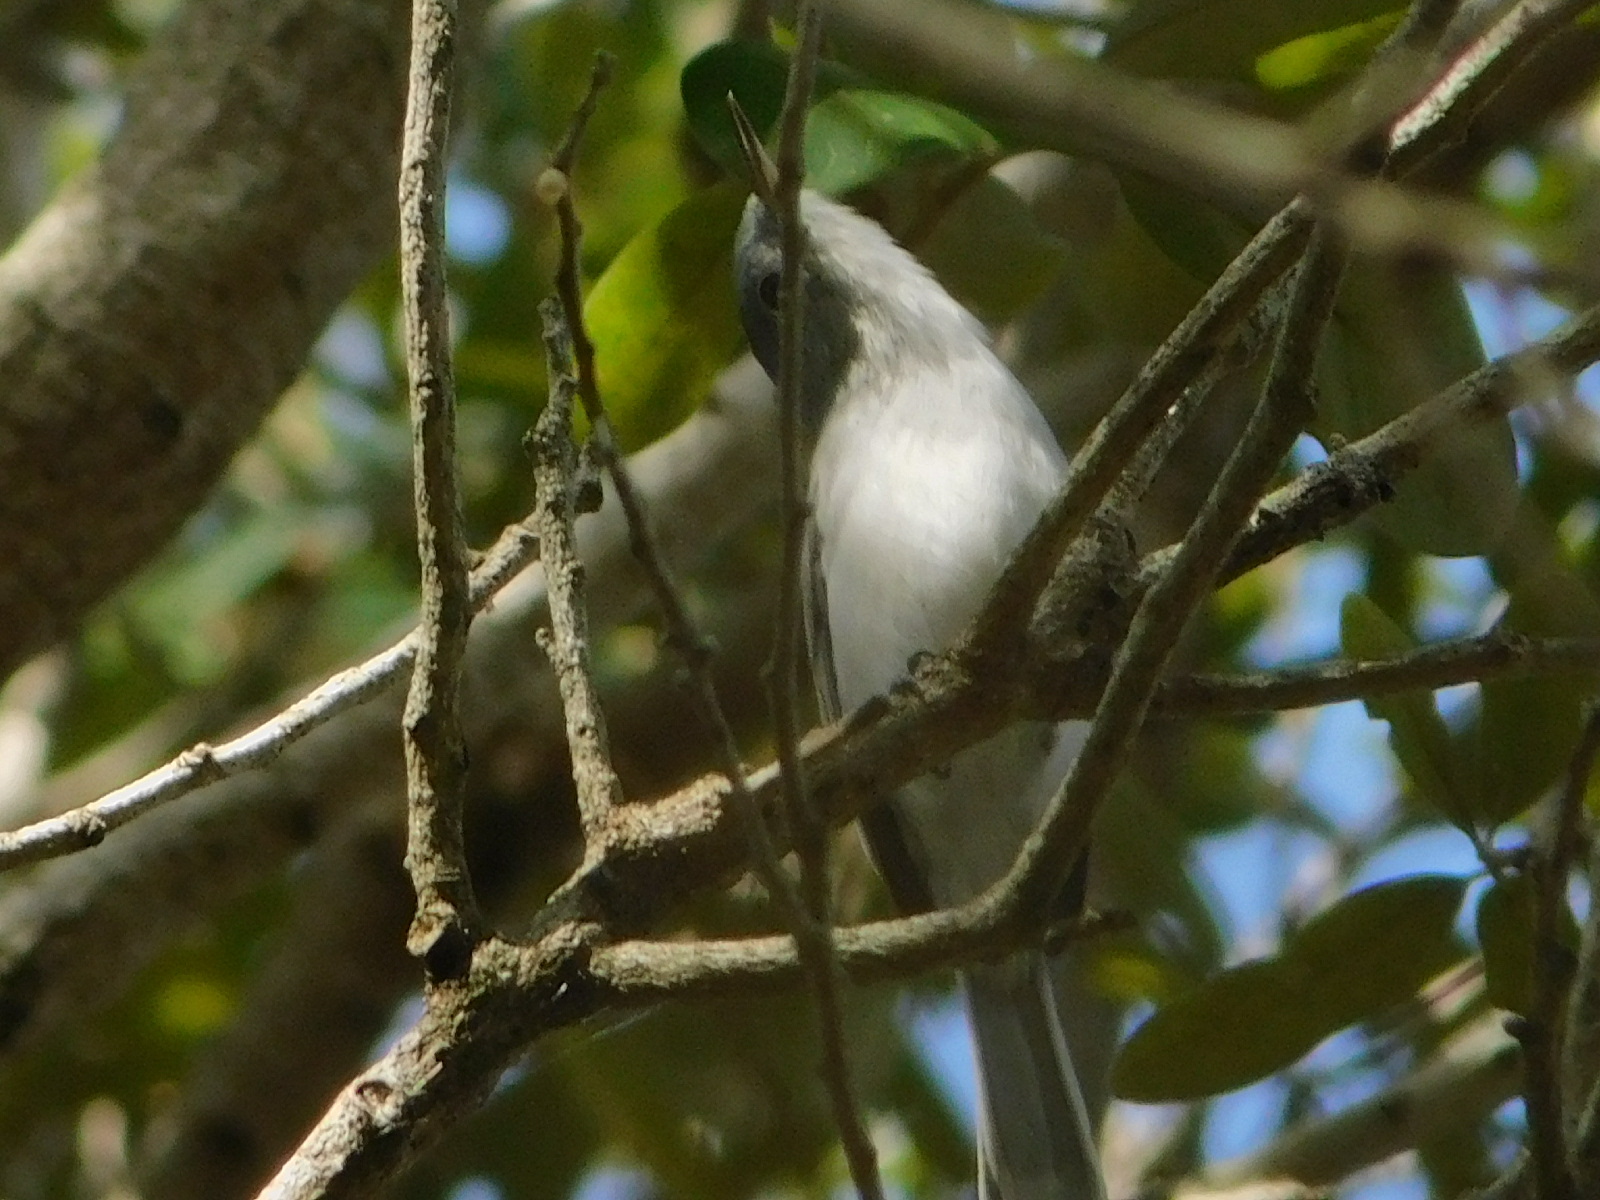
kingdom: Animalia
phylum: Chordata
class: Aves
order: Passeriformes
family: Polioptilidae
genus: Polioptila
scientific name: Polioptila caerulea
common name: Blue-gray gnatcatcher
